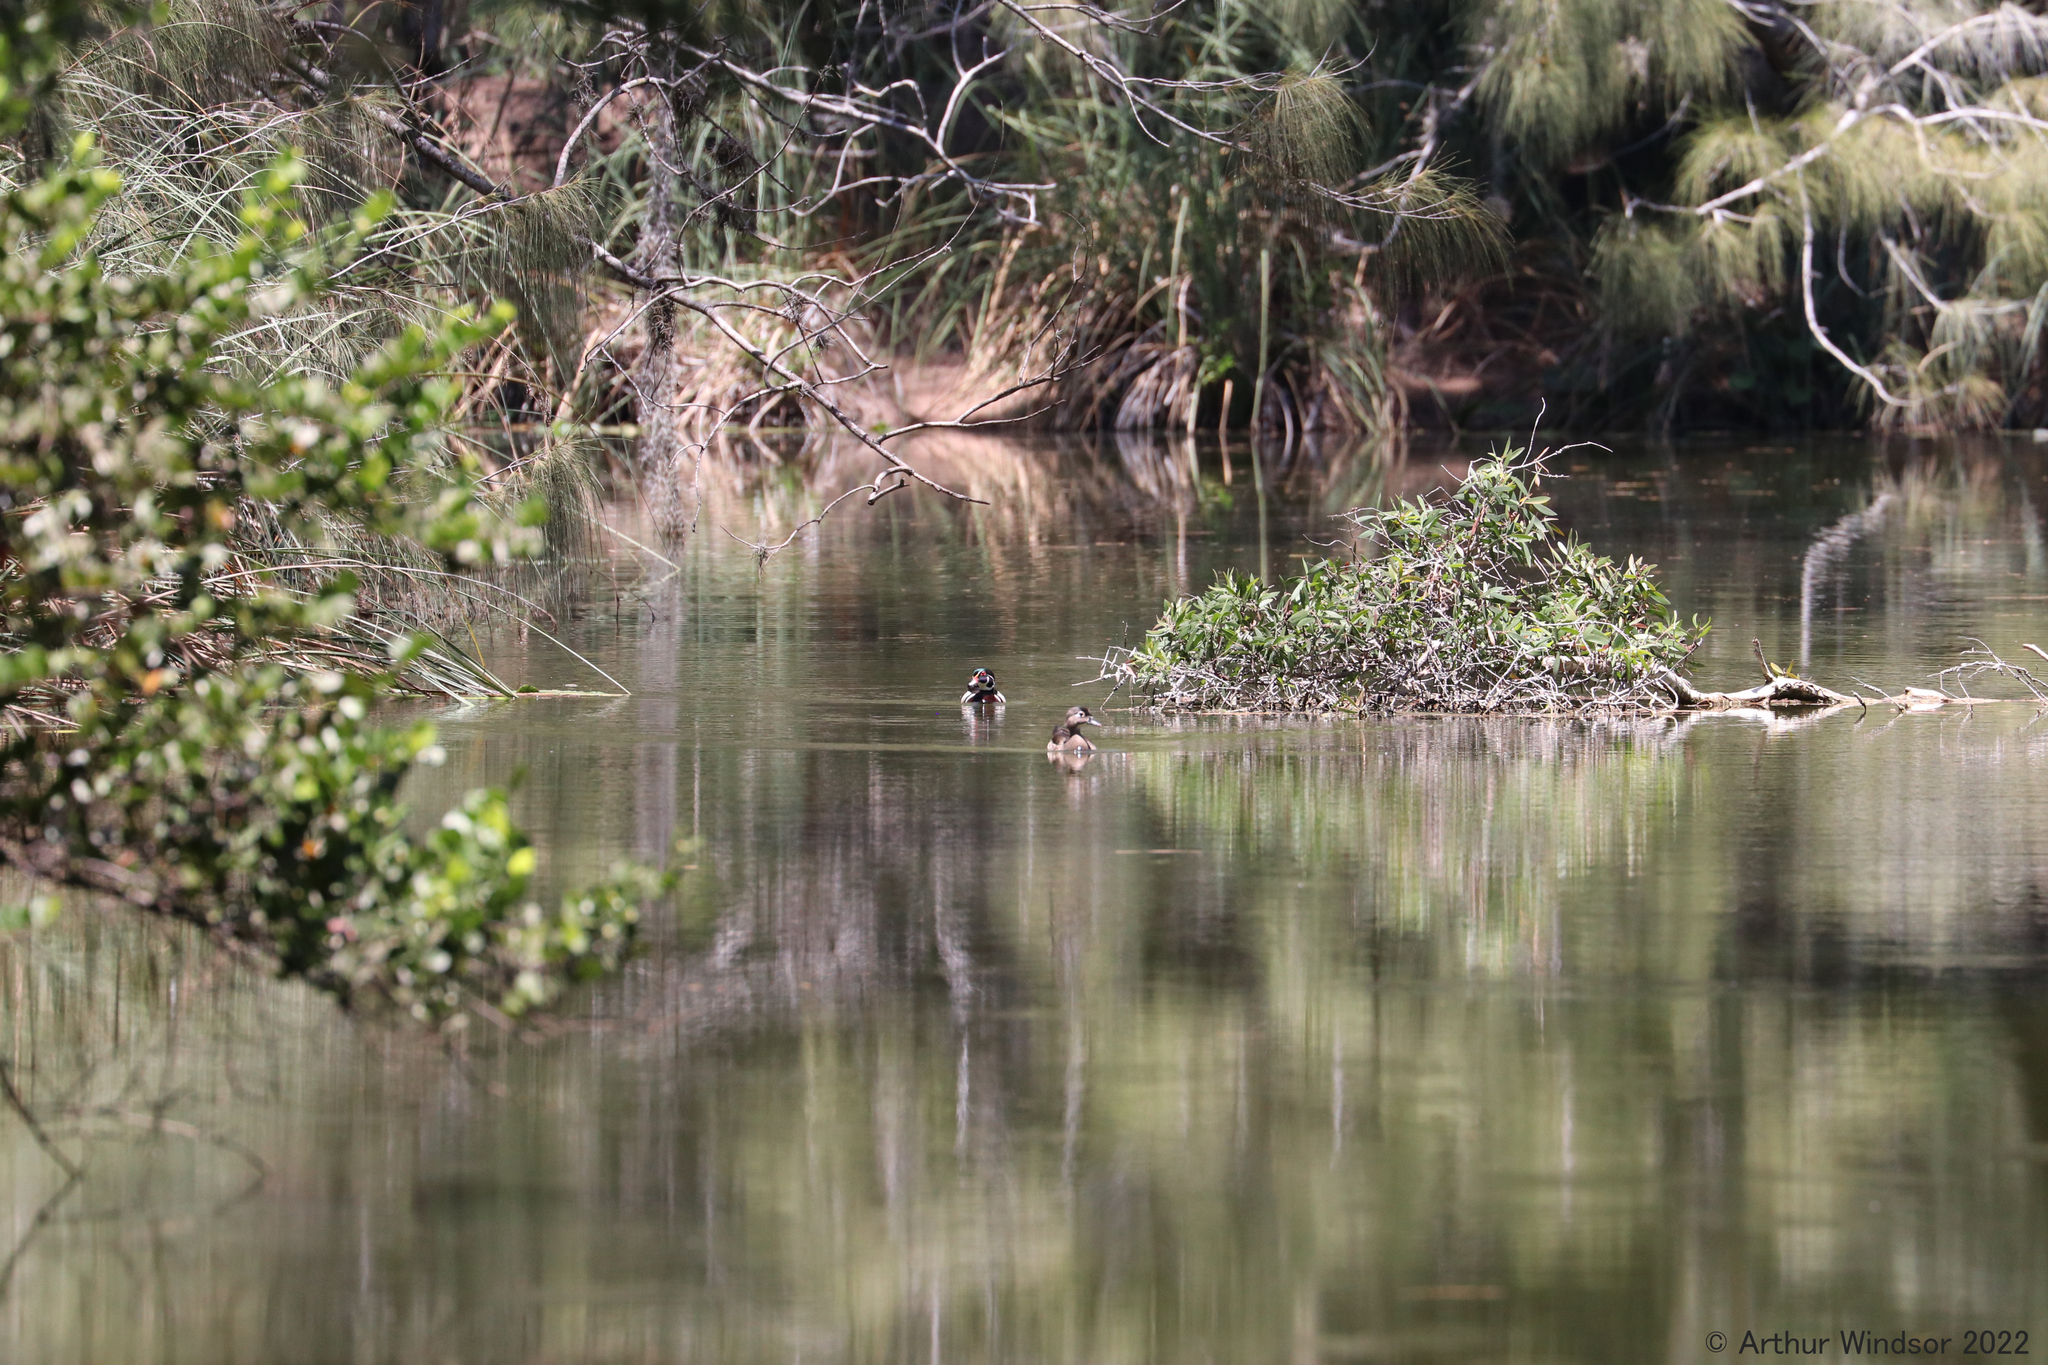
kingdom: Animalia
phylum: Chordata
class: Aves
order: Anseriformes
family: Anatidae
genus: Aix
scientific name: Aix sponsa
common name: Wood duck
